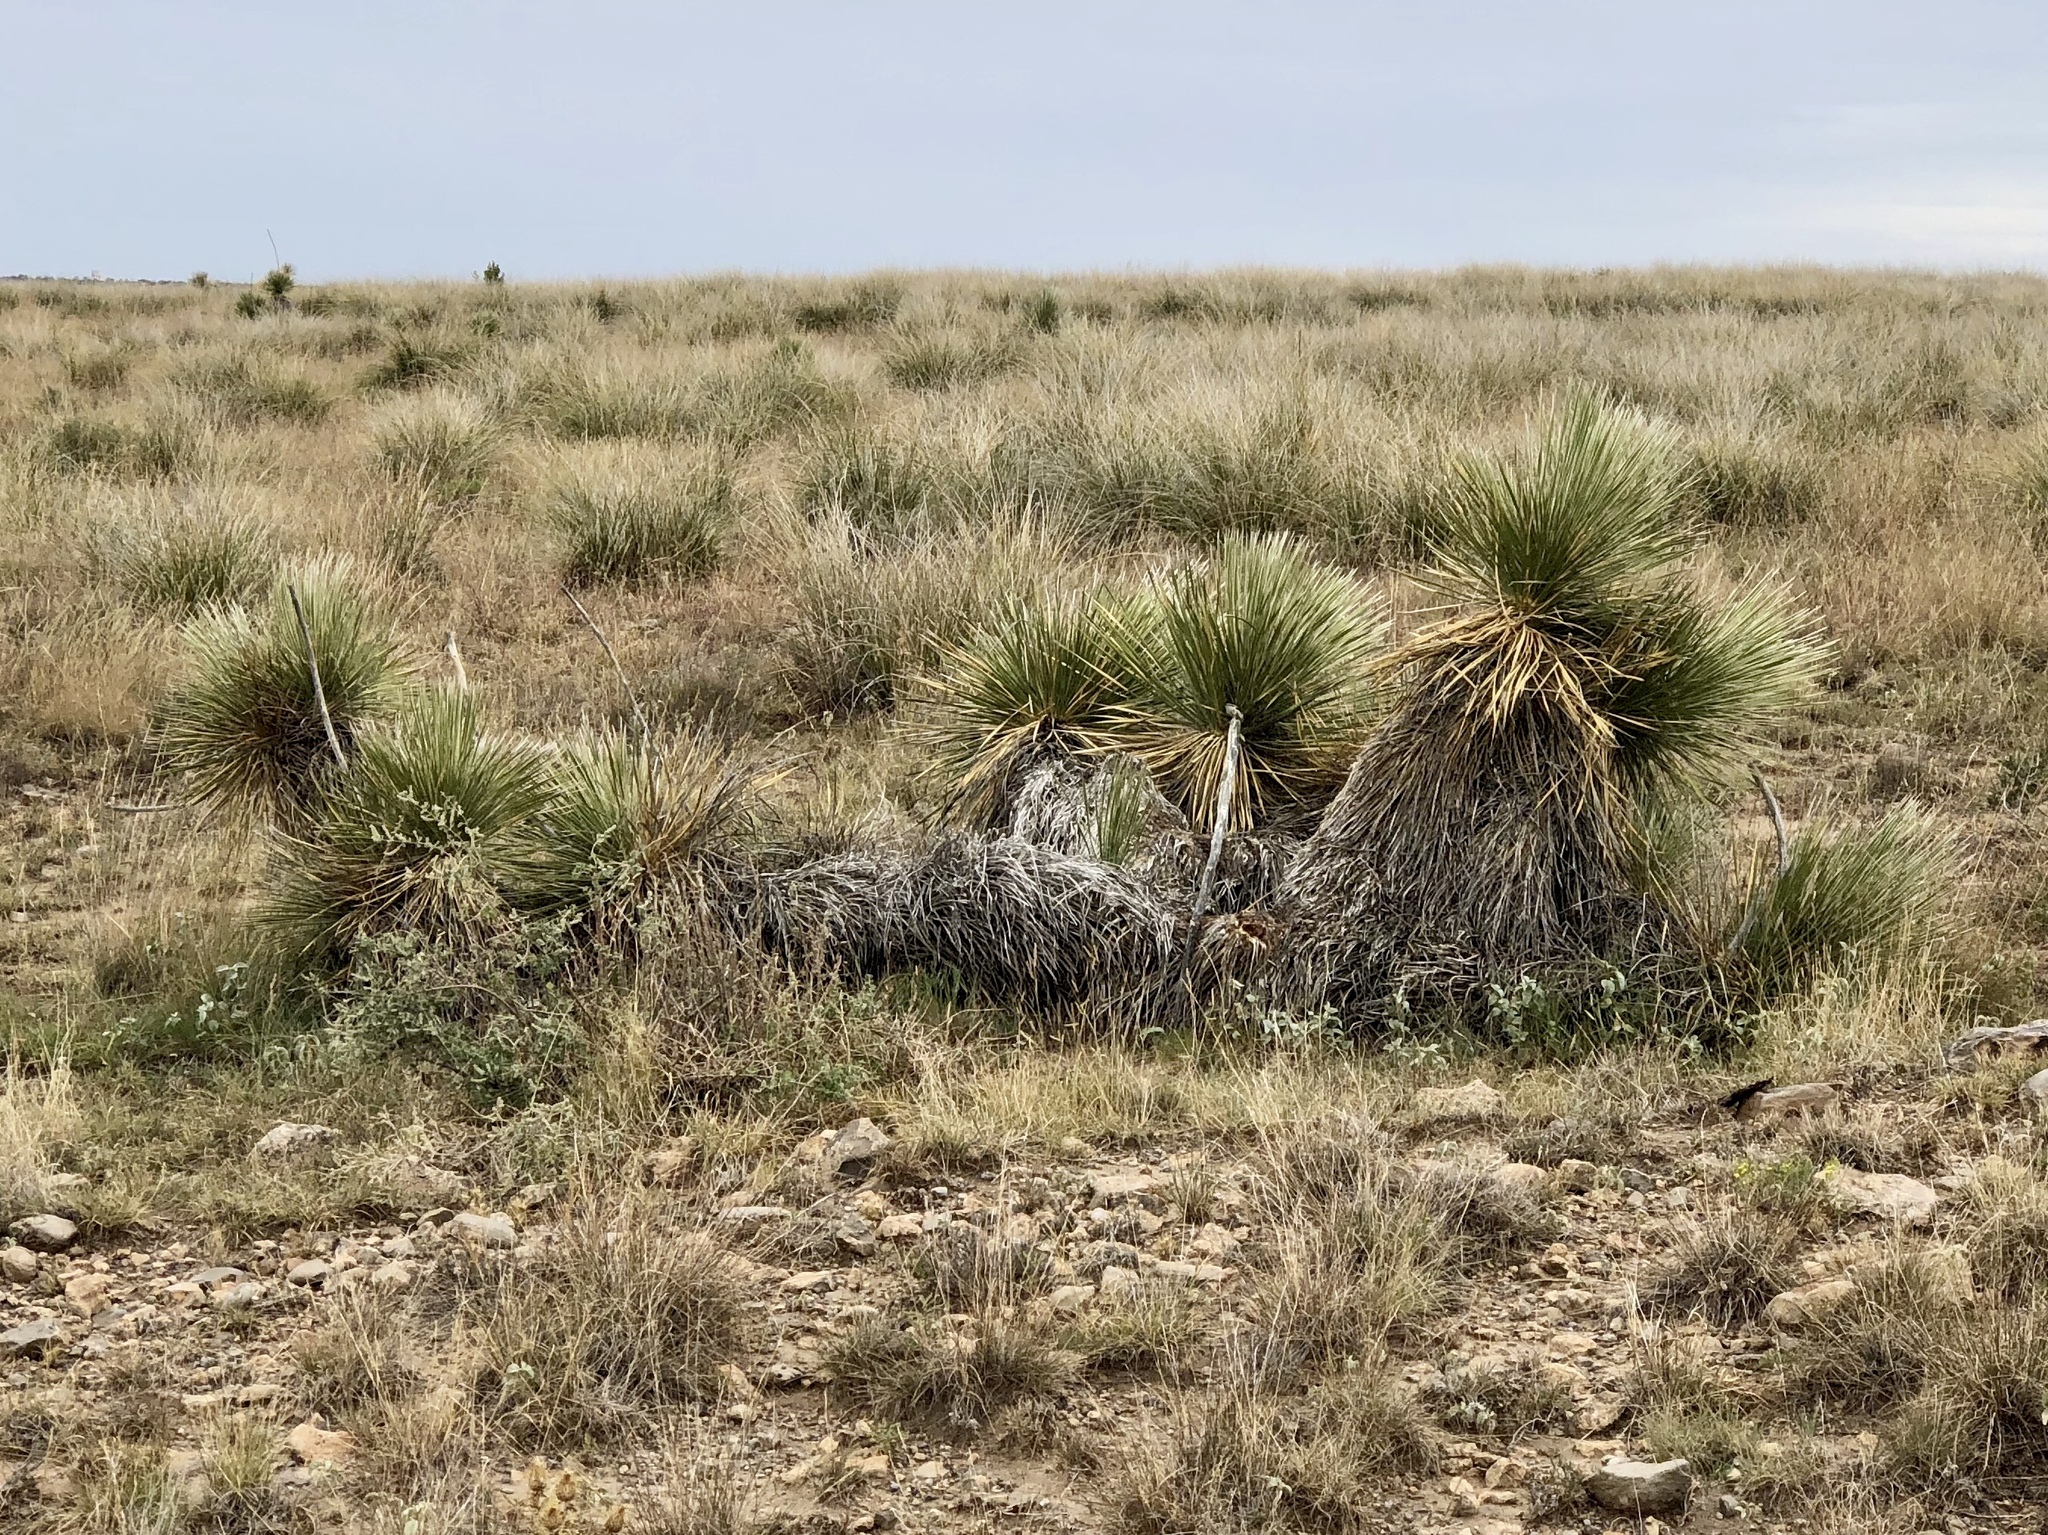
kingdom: Plantae
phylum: Tracheophyta
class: Liliopsida
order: Asparagales
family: Asparagaceae
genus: Yucca
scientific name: Yucca elata
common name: Palmella
